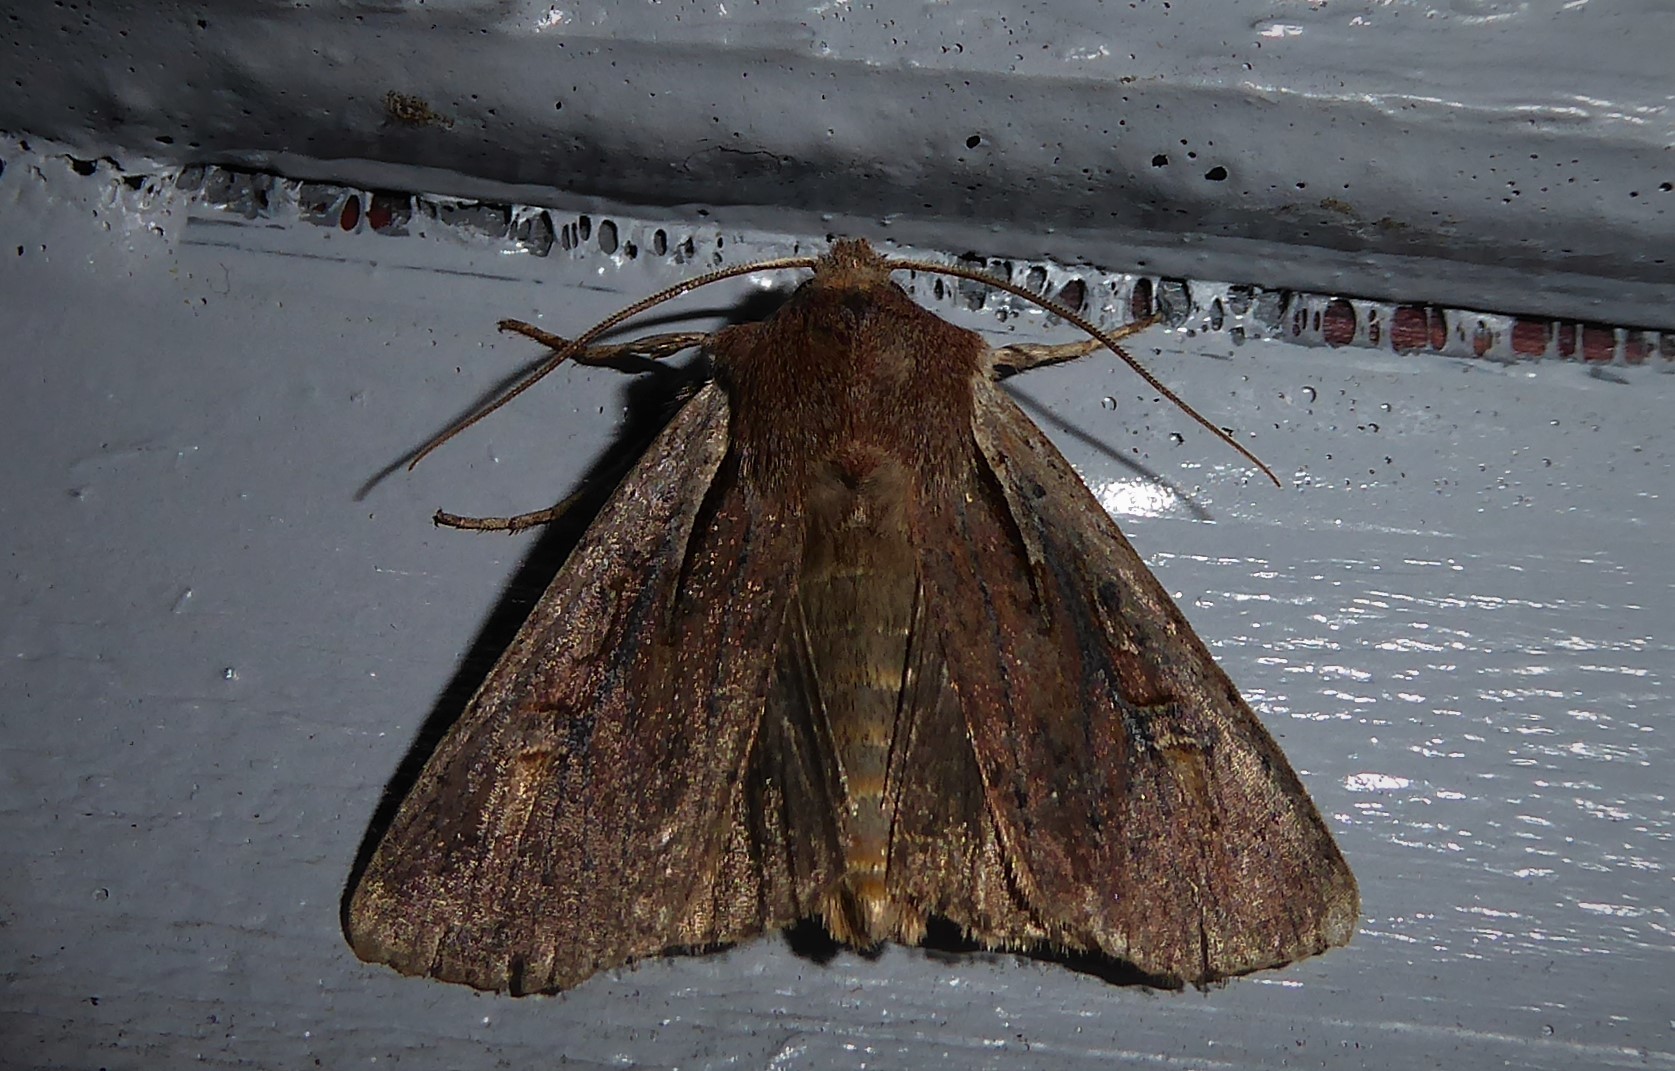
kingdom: Animalia
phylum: Arthropoda
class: Insecta
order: Lepidoptera
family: Noctuidae
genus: Ichneutica
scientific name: Ichneutica atristriga
